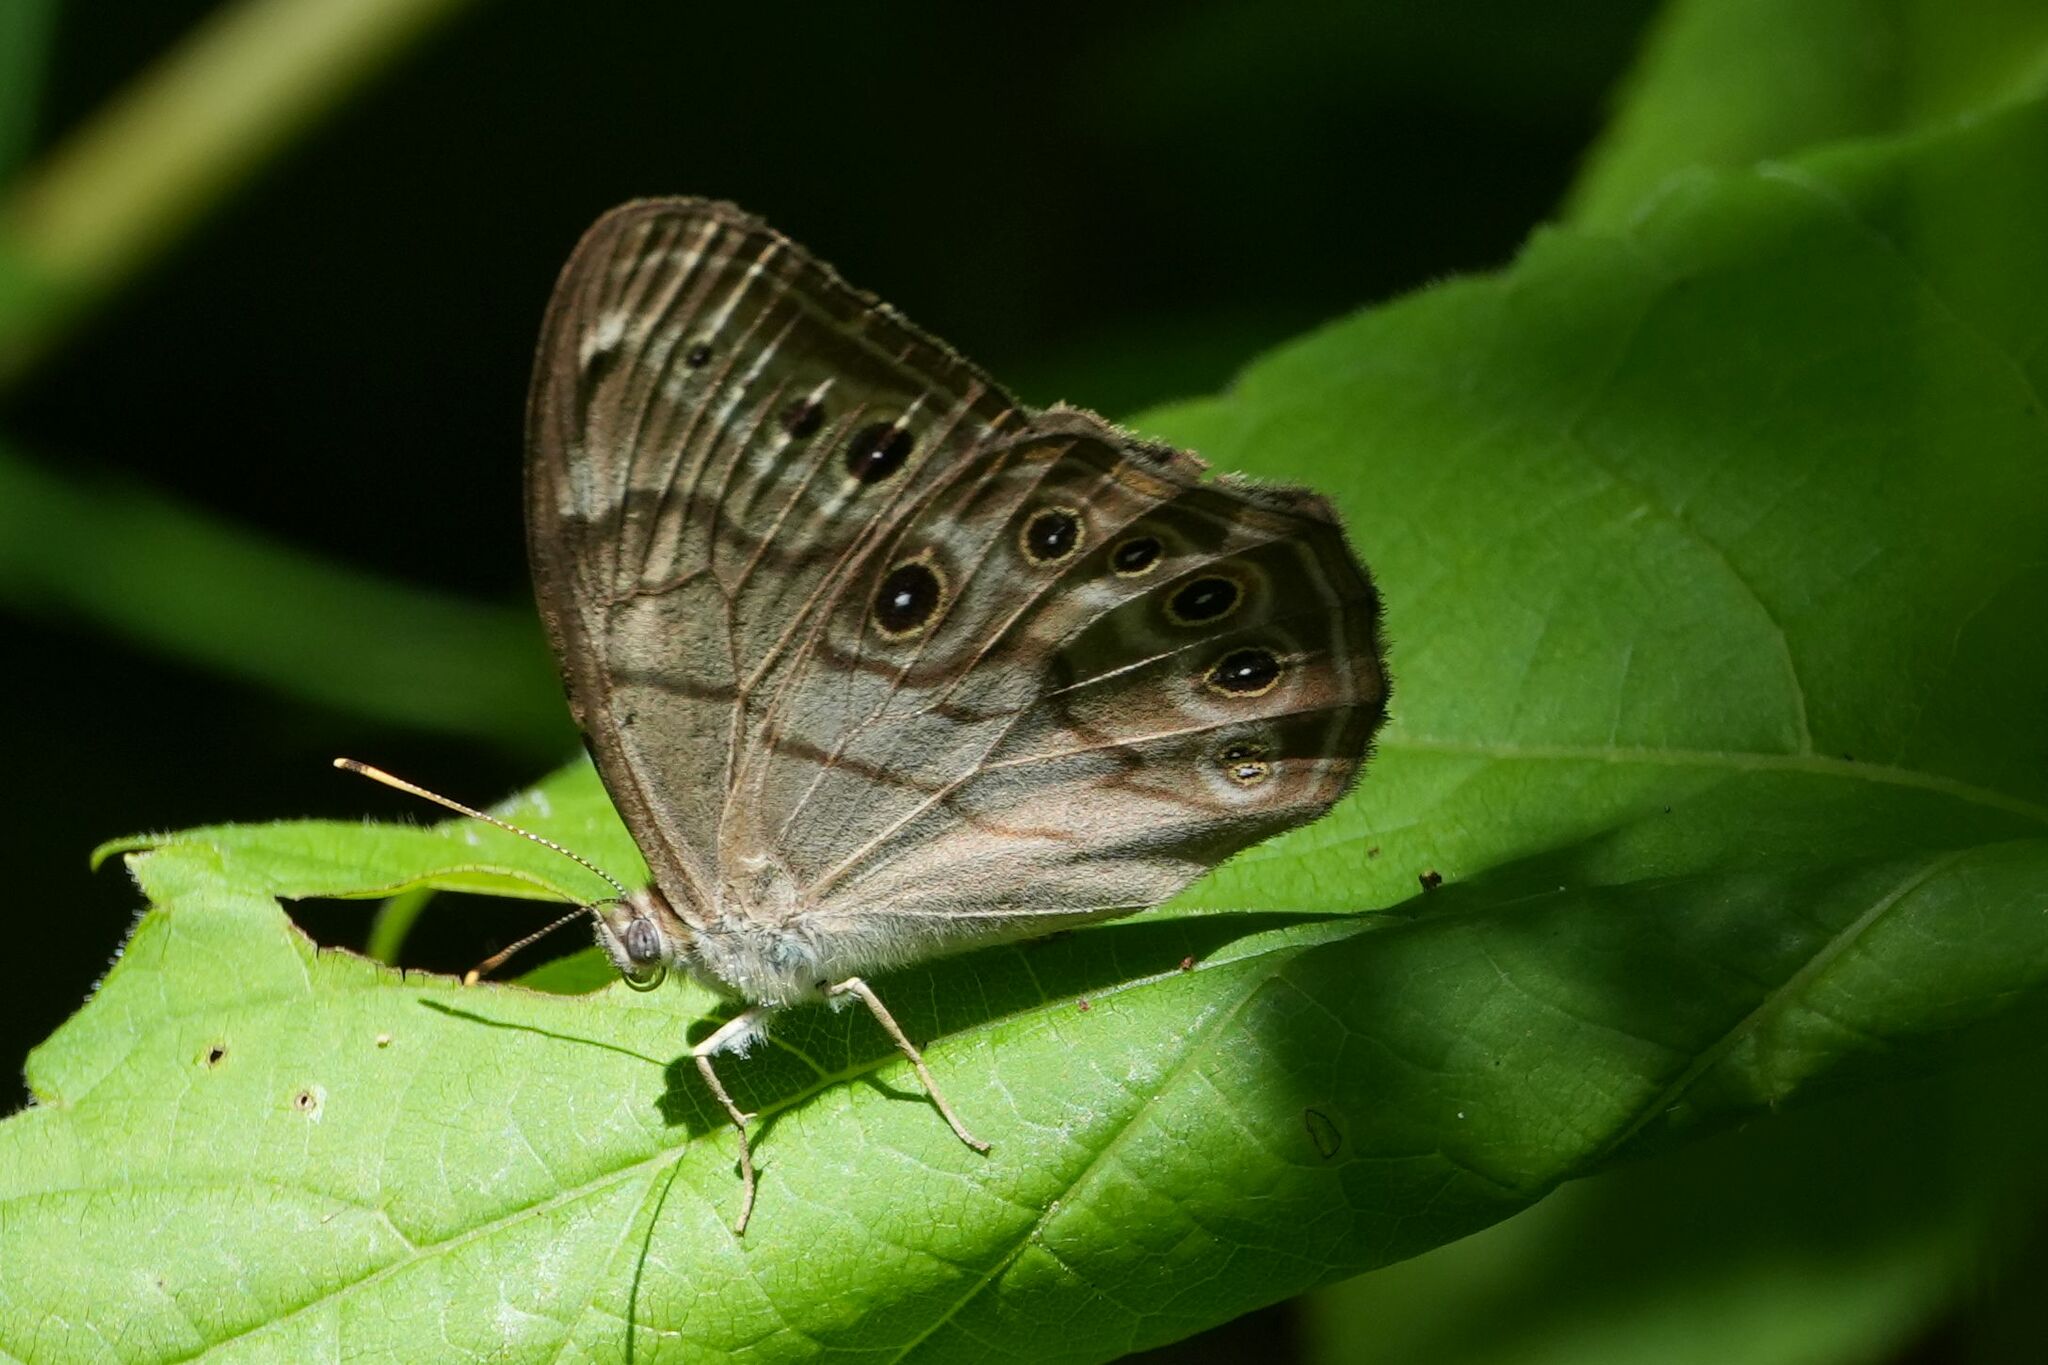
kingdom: Animalia
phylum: Arthropoda
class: Insecta
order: Lepidoptera
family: Nymphalidae
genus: Lethe
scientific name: Lethe anthedon
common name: Northern pearly-eye
